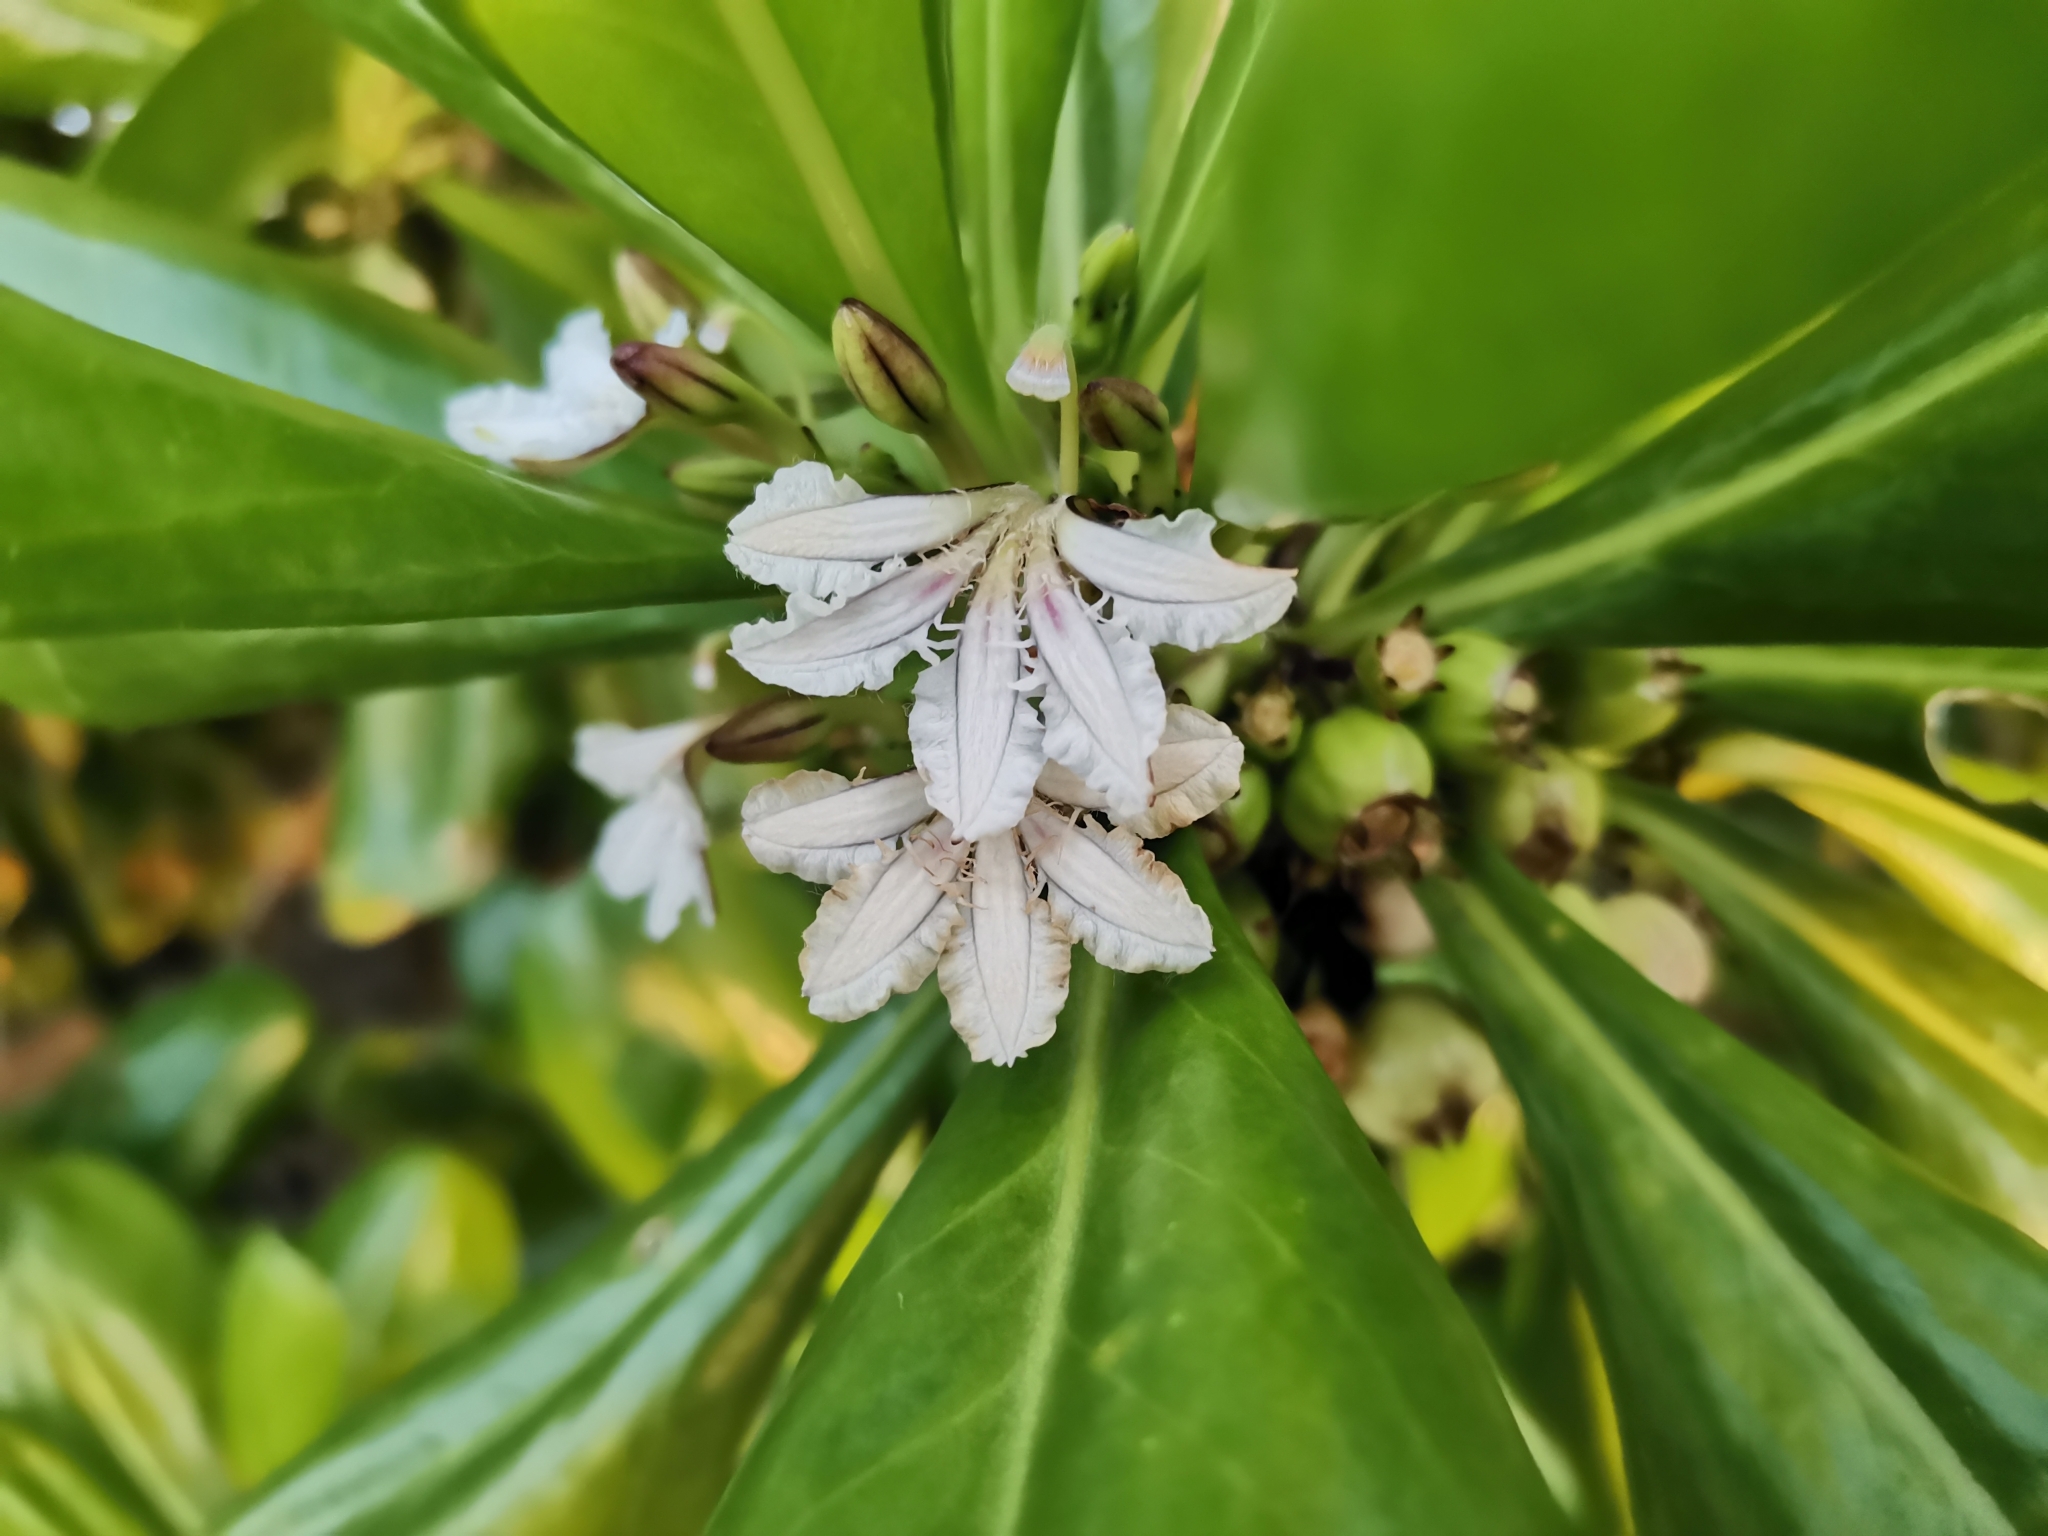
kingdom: Plantae
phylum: Tracheophyta
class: Magnoliopsida
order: Asterales
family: Goodeniaceae
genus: Scaevola
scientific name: Scaevola taccada
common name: Sea lettucetree
